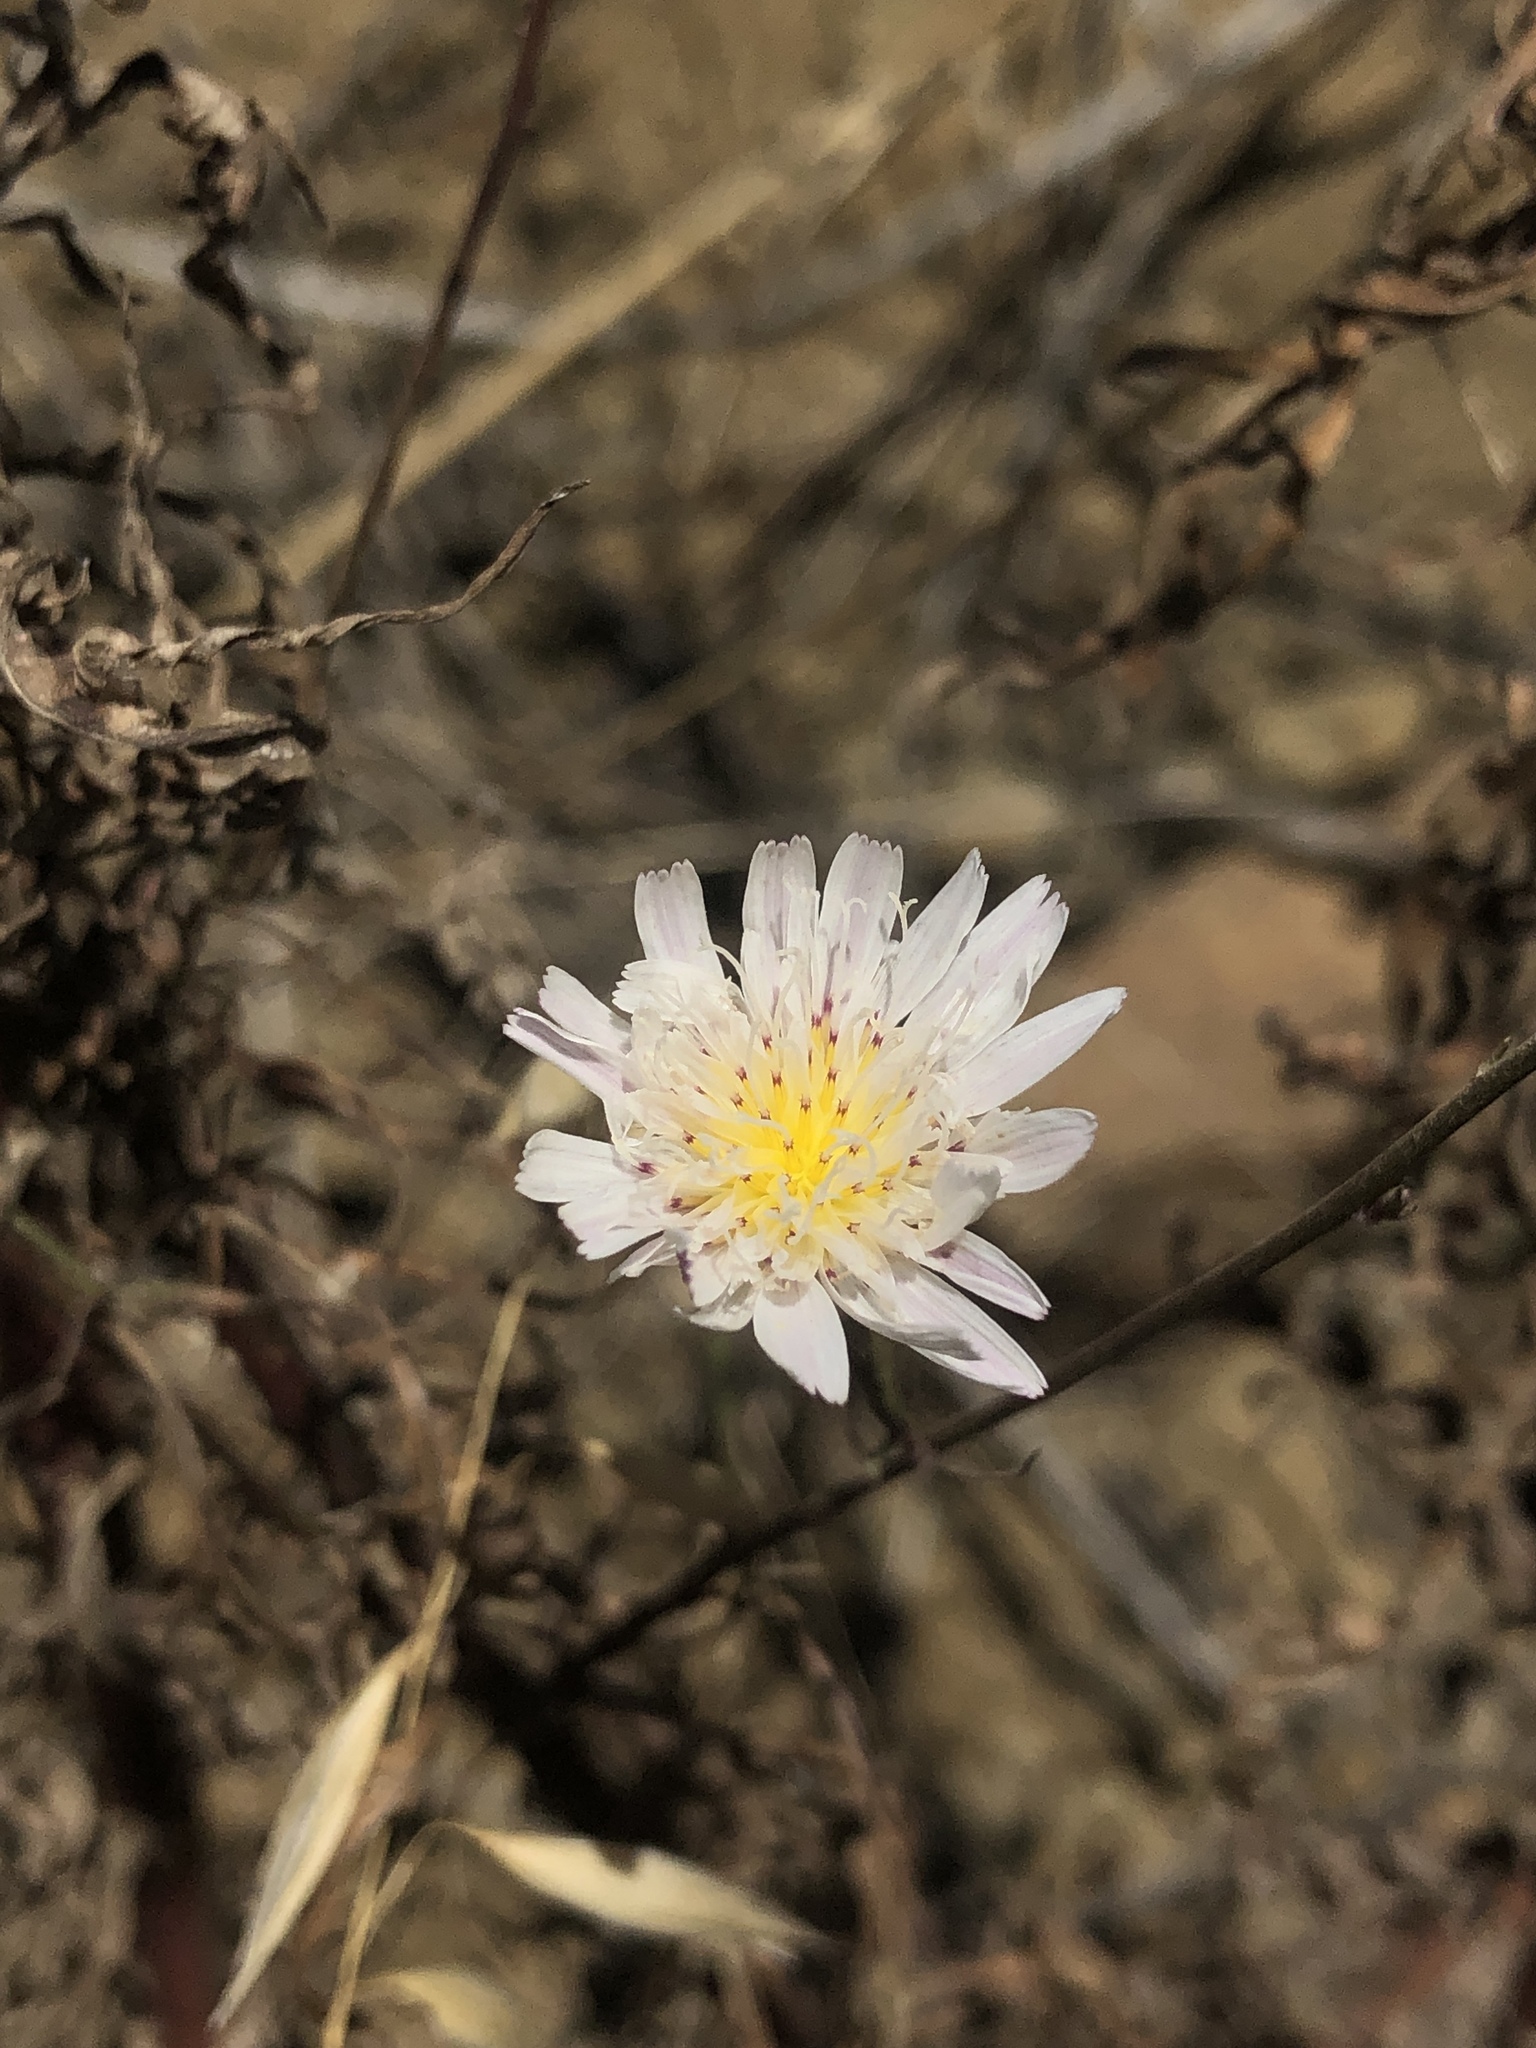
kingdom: Plantae
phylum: Tracheophyta
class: Magnoliopsida
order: Asterales
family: Asteraceae
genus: Malacothrix
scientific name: Malacothrix saxatilis
